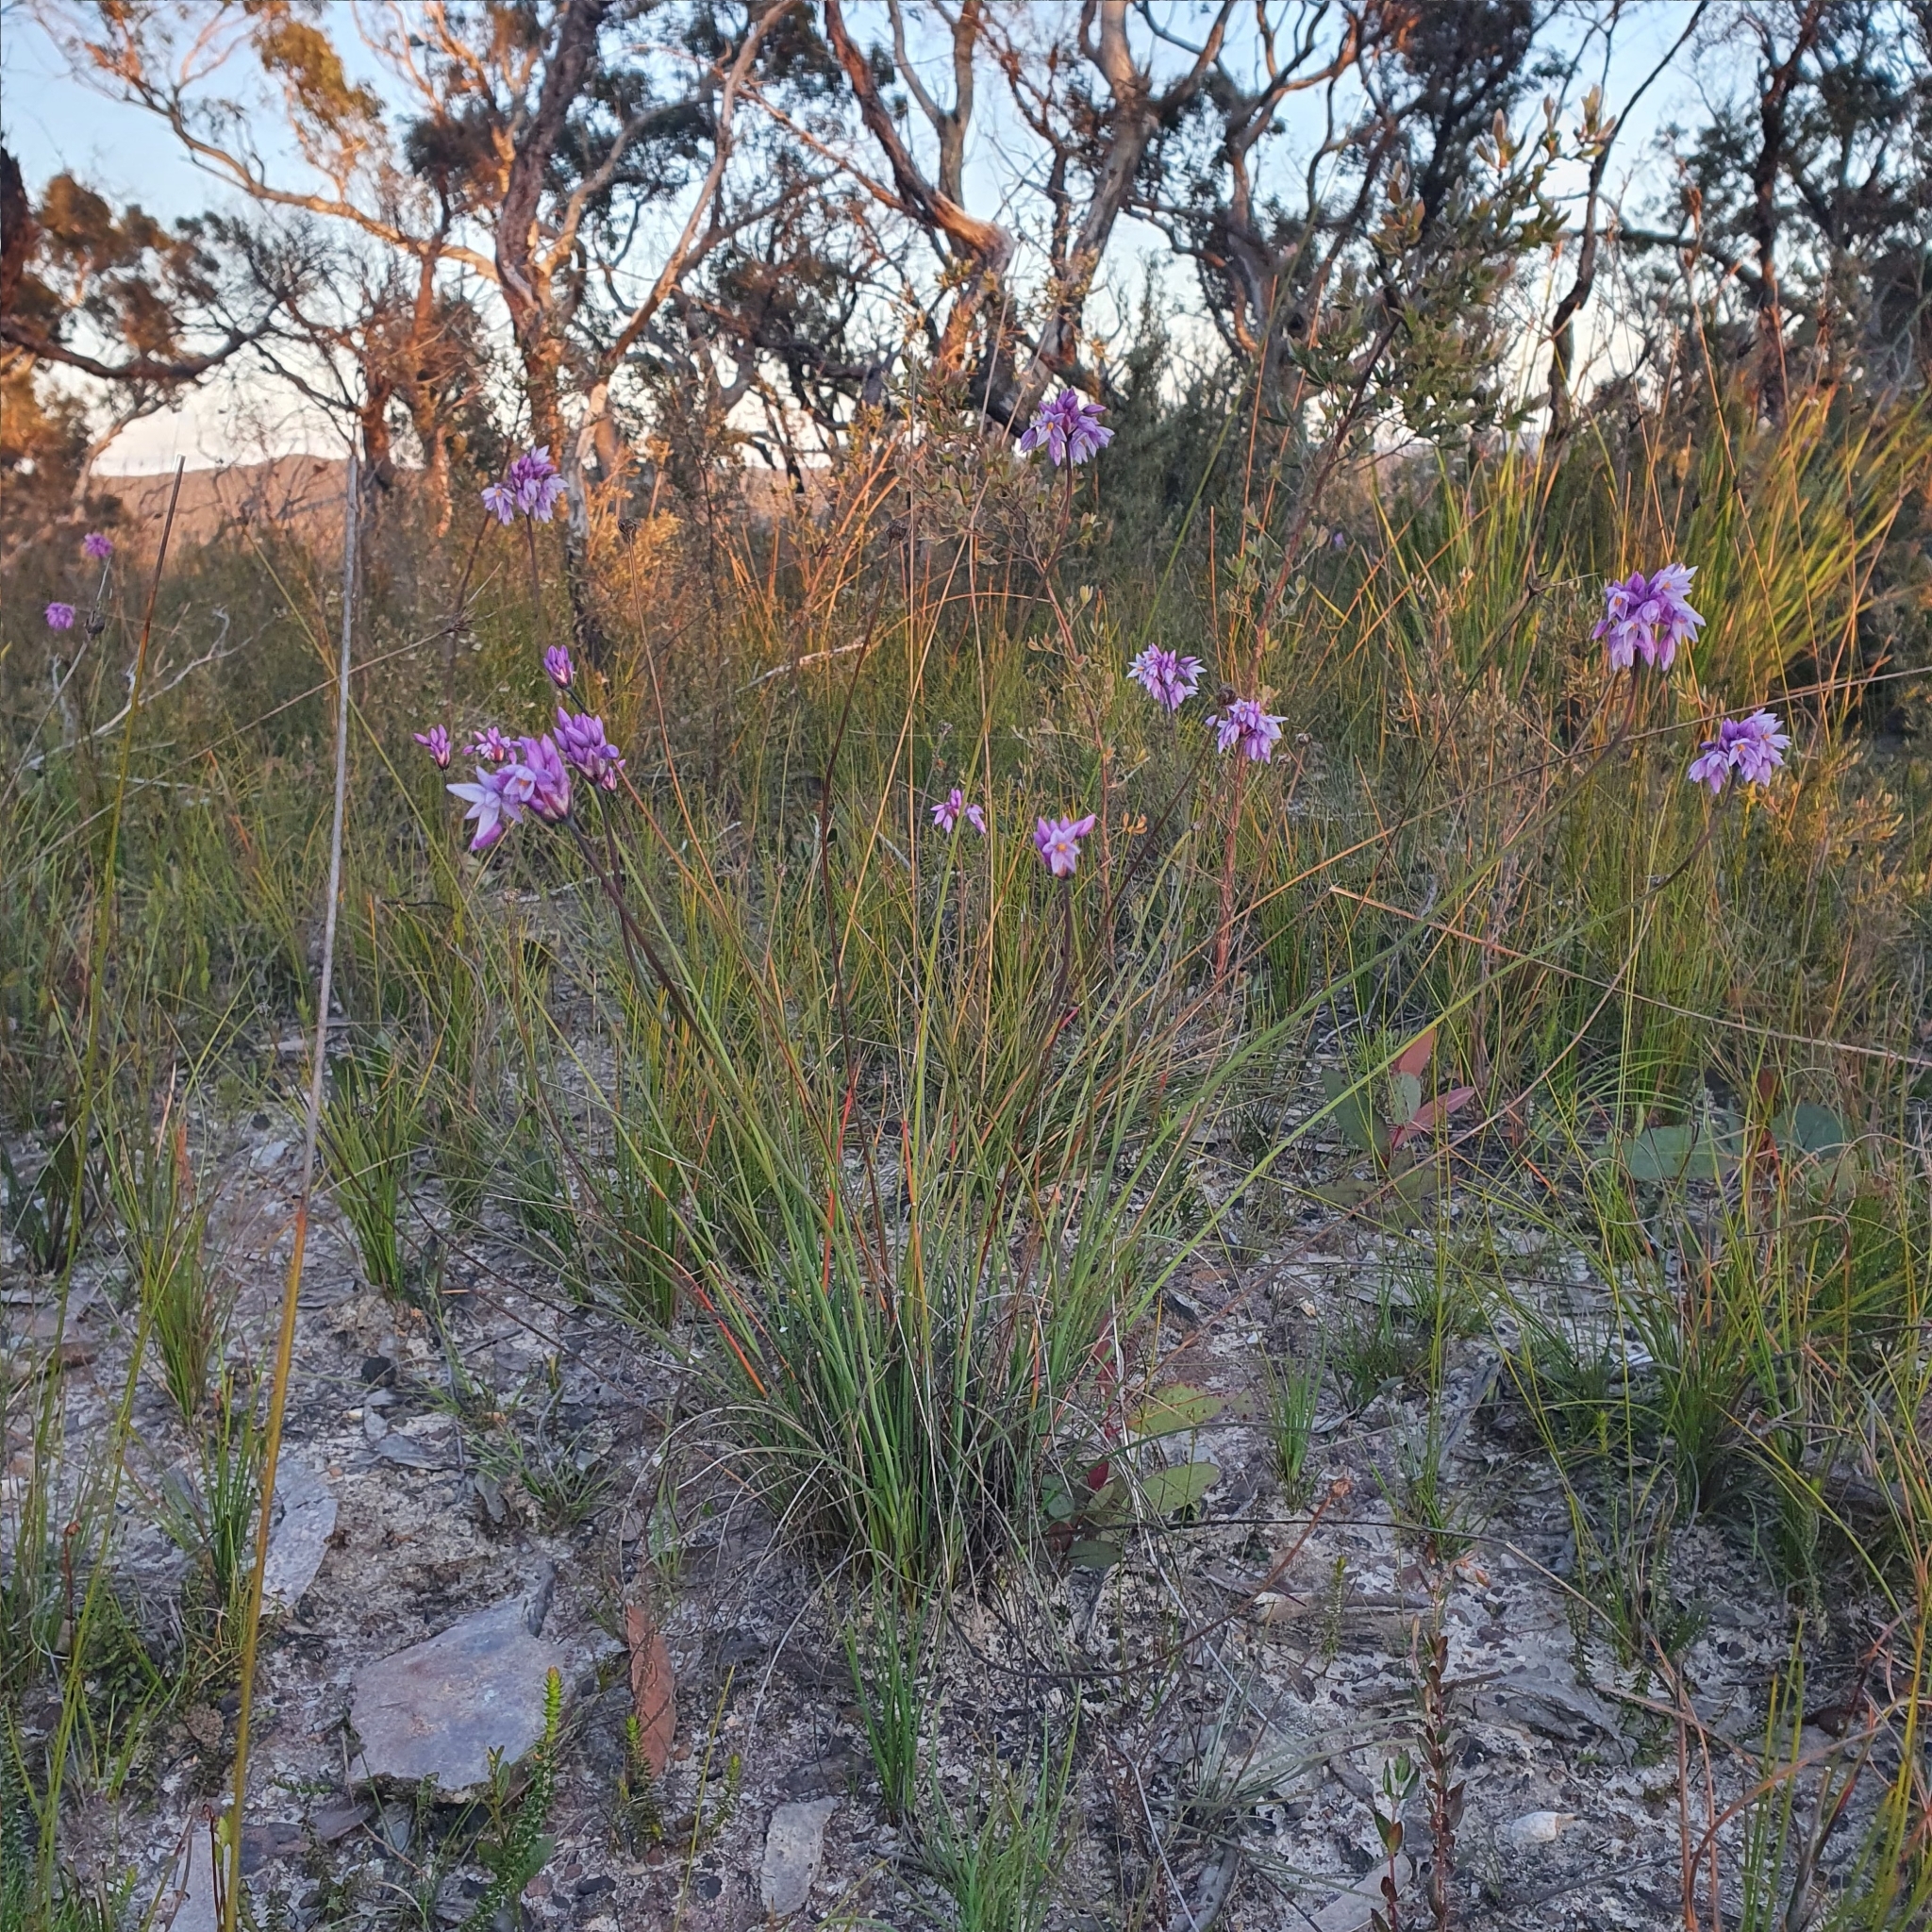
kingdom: Plantae
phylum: Tracheophyta
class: Liliopsida
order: Asparagales
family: Asparagaceae
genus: Sowerbaea
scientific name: Sowerbaea juncea
